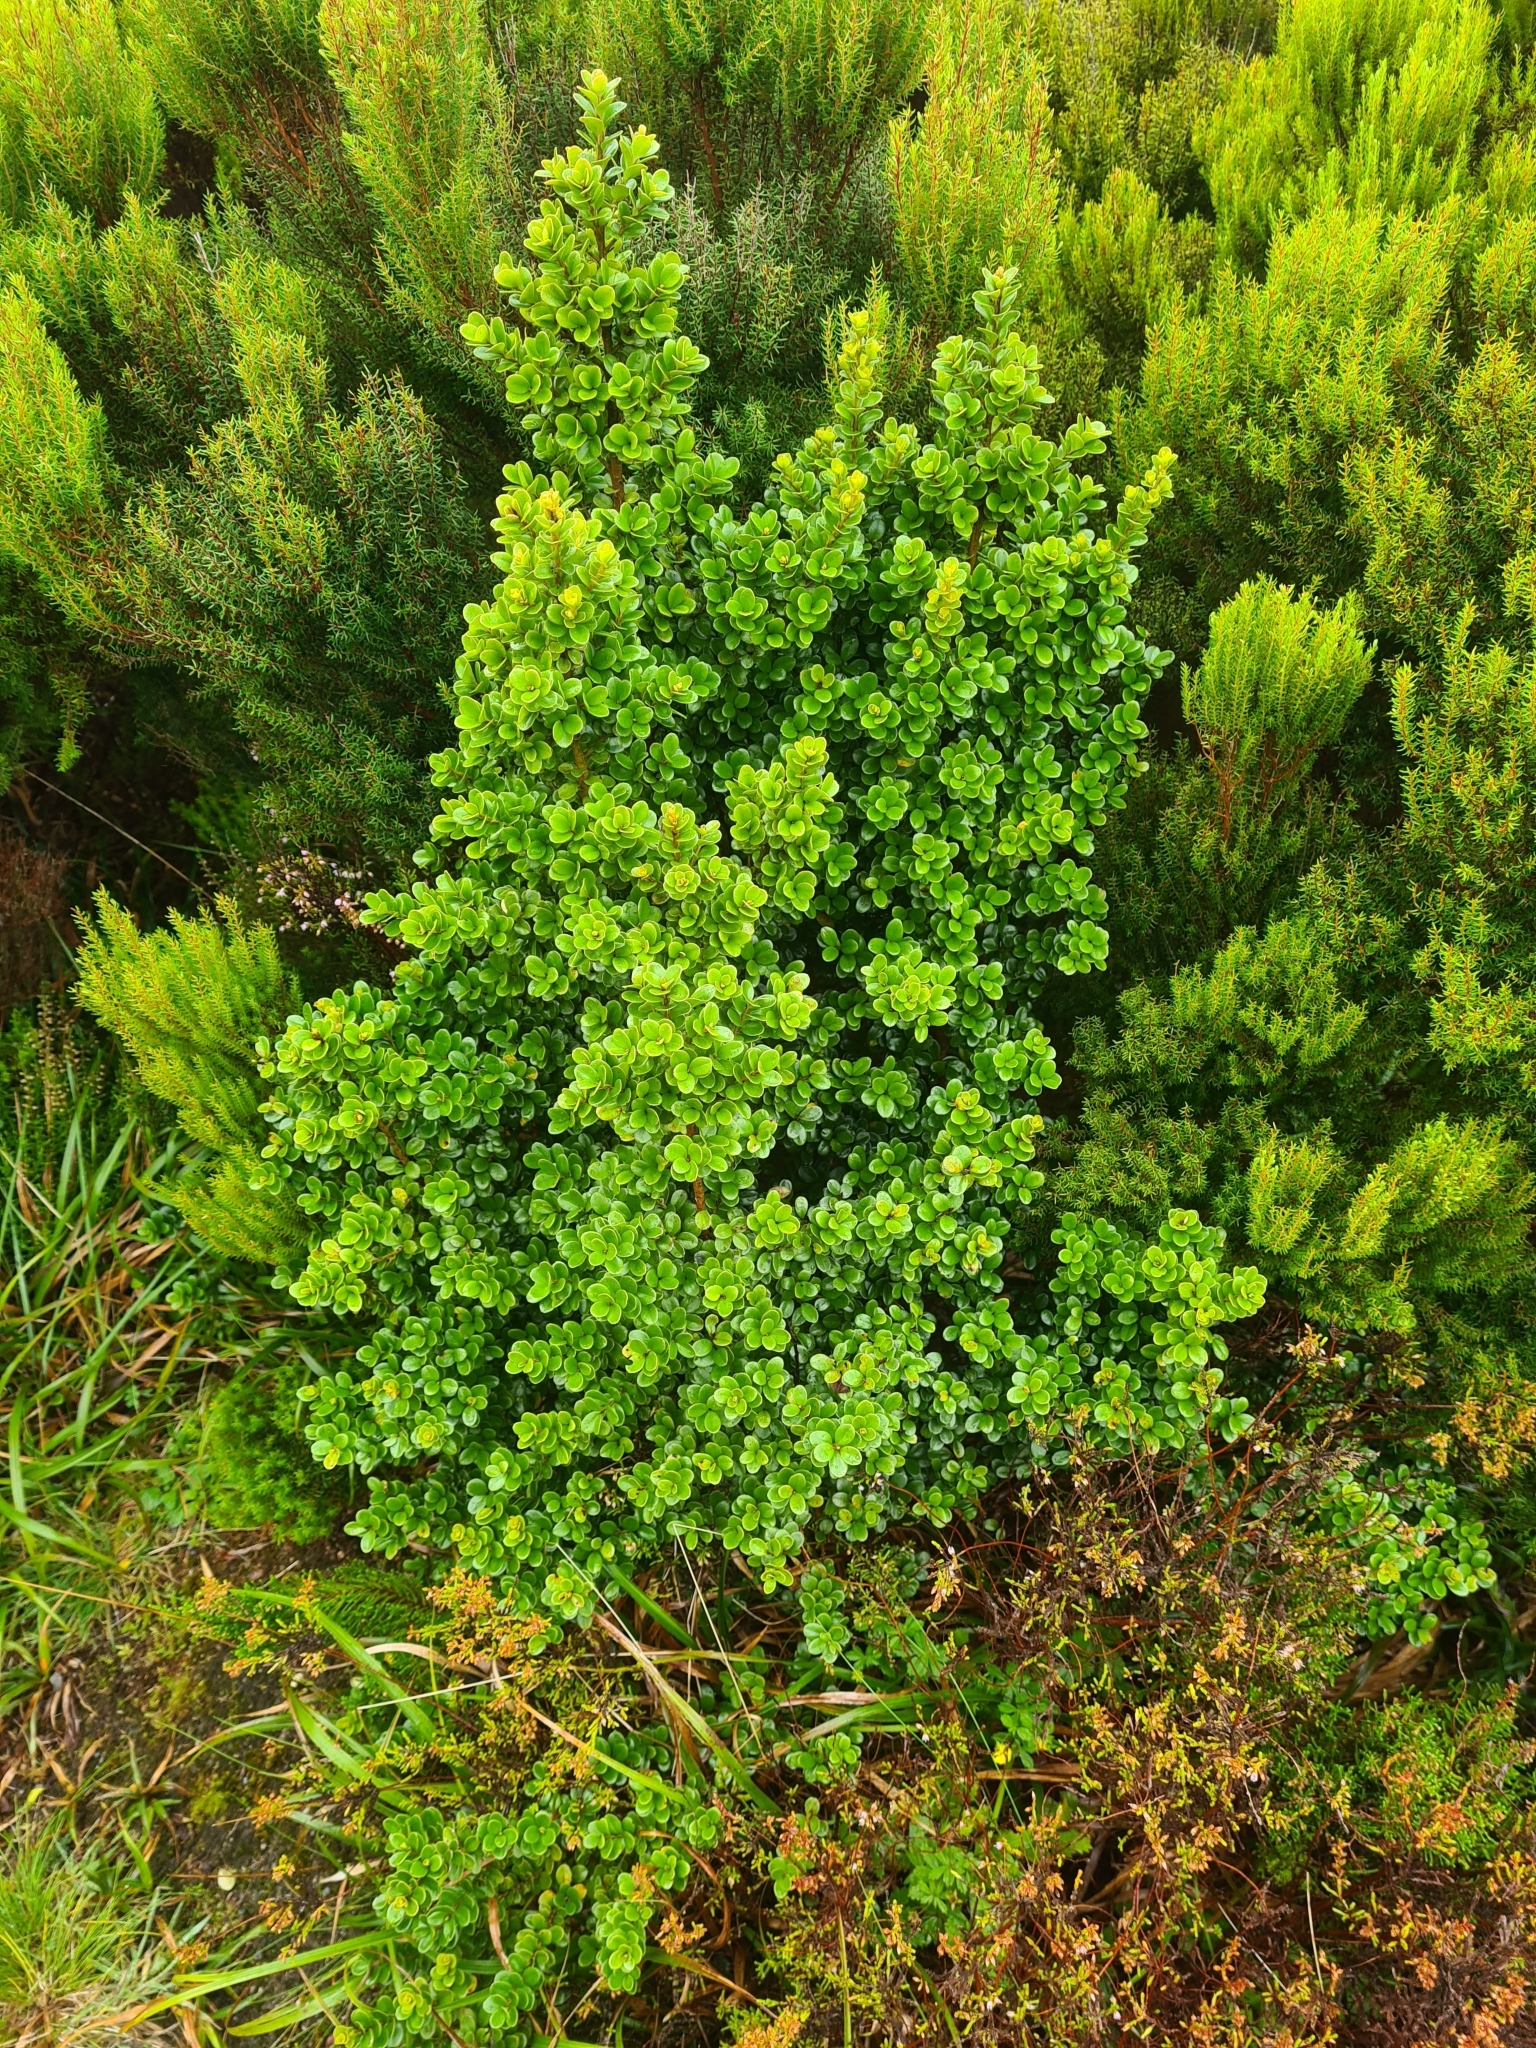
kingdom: Plantae
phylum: Tracheophyta
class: Magnoliopsida
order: Ericales
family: Primulaceae
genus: Myrsine
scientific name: Myrsine africana
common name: African-boxwood
